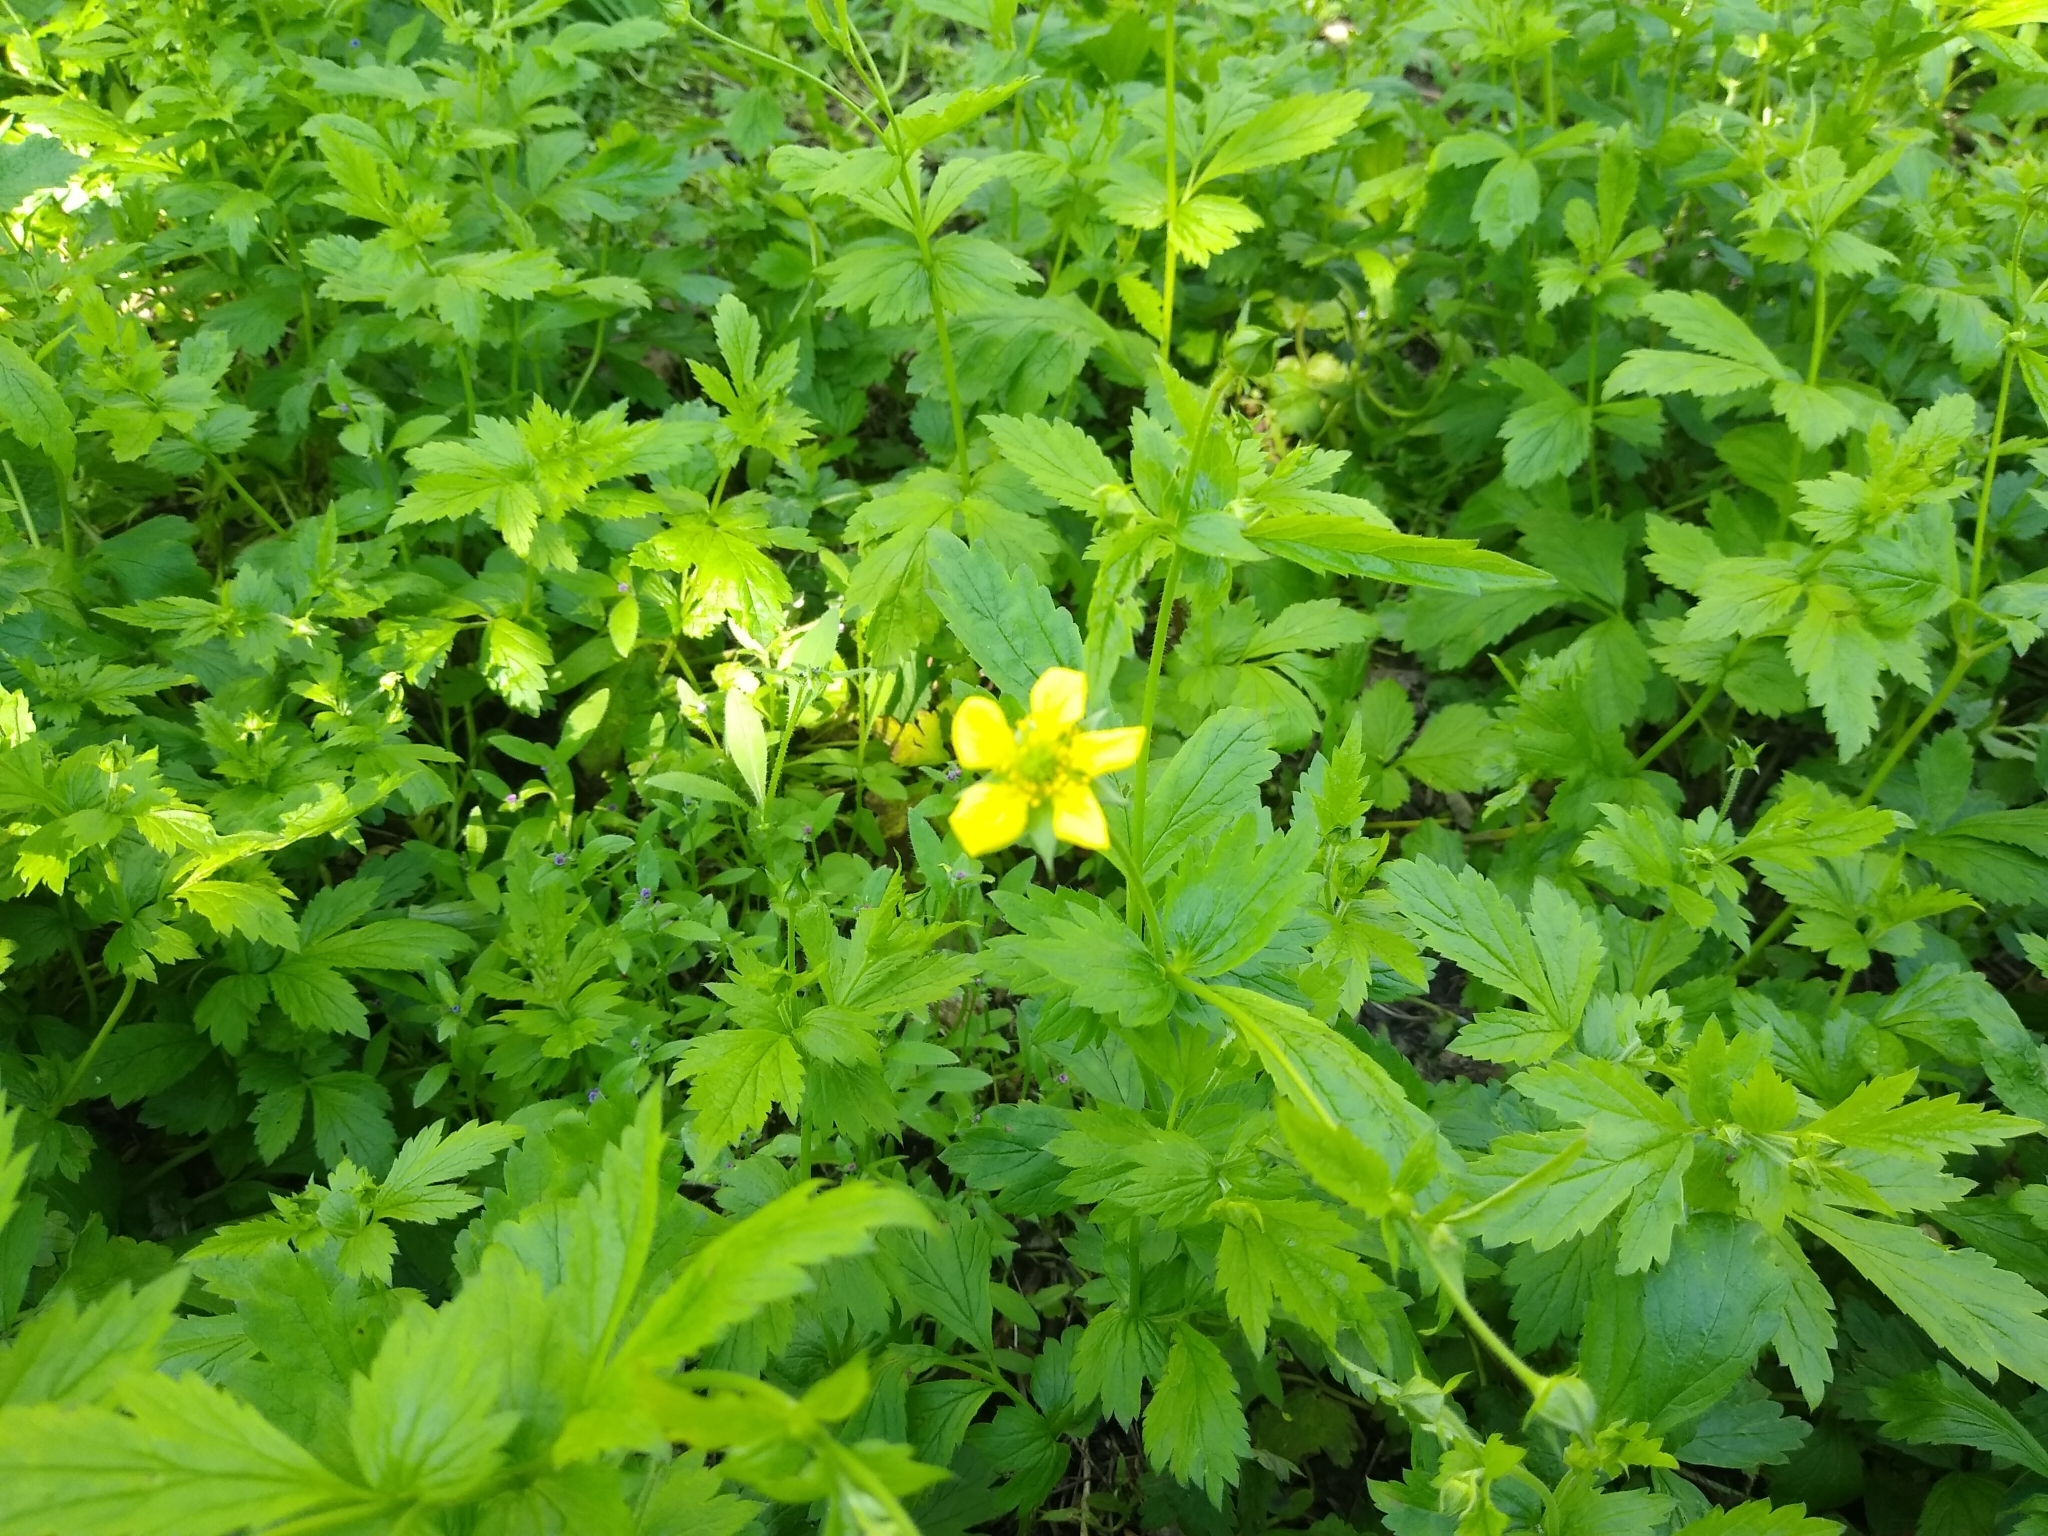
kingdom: Plantae
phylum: Tracheophyta
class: Magnoliopsida
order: Rosales
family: Rosaceae
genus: Geum
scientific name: Geum urbanum
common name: Wood avens
